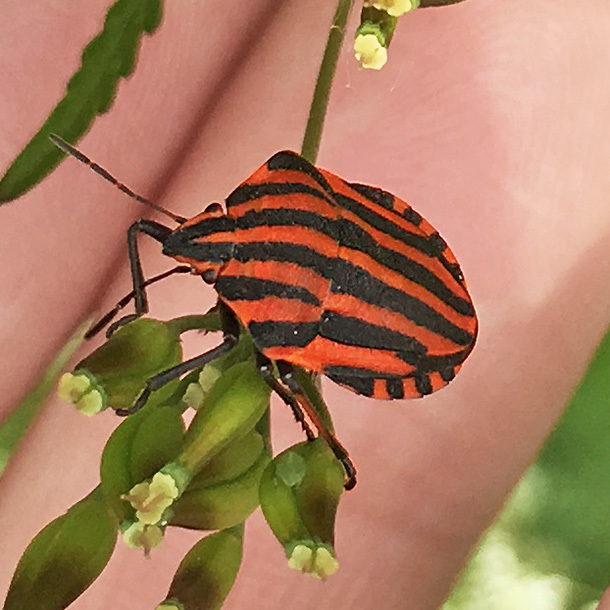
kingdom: Animalia
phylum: Arthropoda
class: Insecta
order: Hemiptera
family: Pentatomidae
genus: Graphosoma
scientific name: Graphosoma italicum
